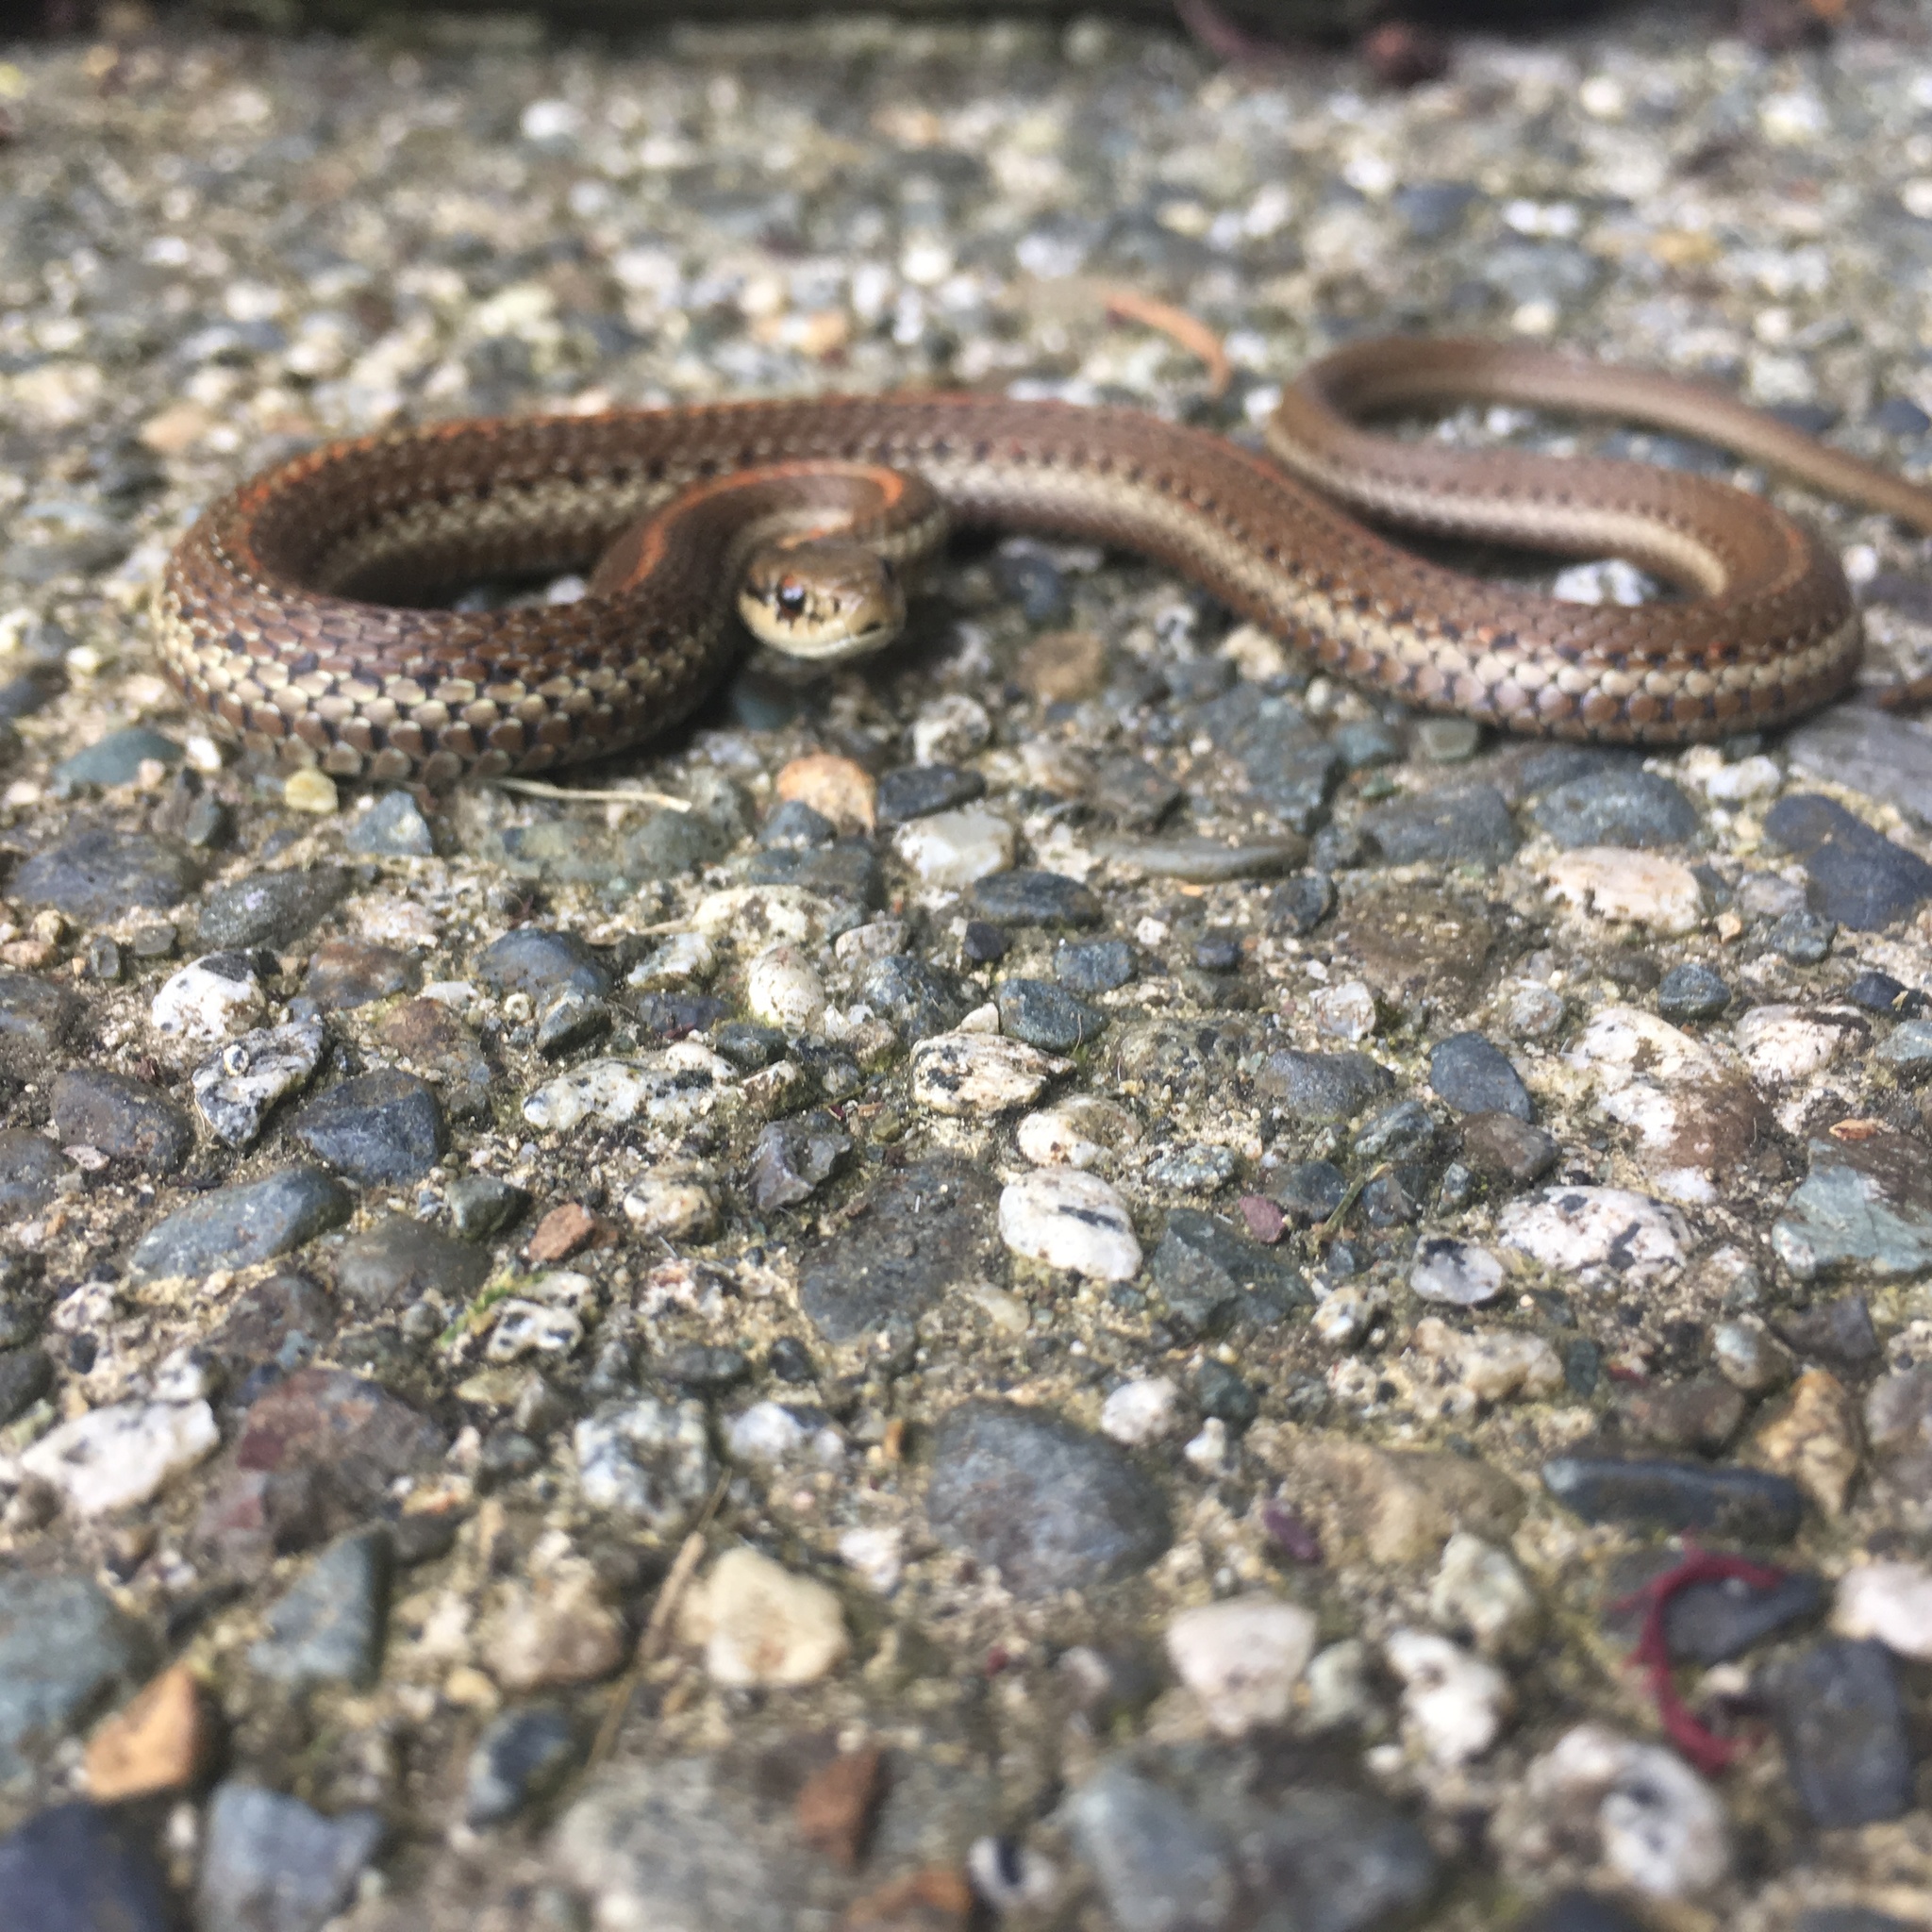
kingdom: Animalia
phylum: Chordata
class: Squamata
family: Colubridae
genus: Thamnophis
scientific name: Thamnophis ordinoides
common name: Northwestern garter snake
